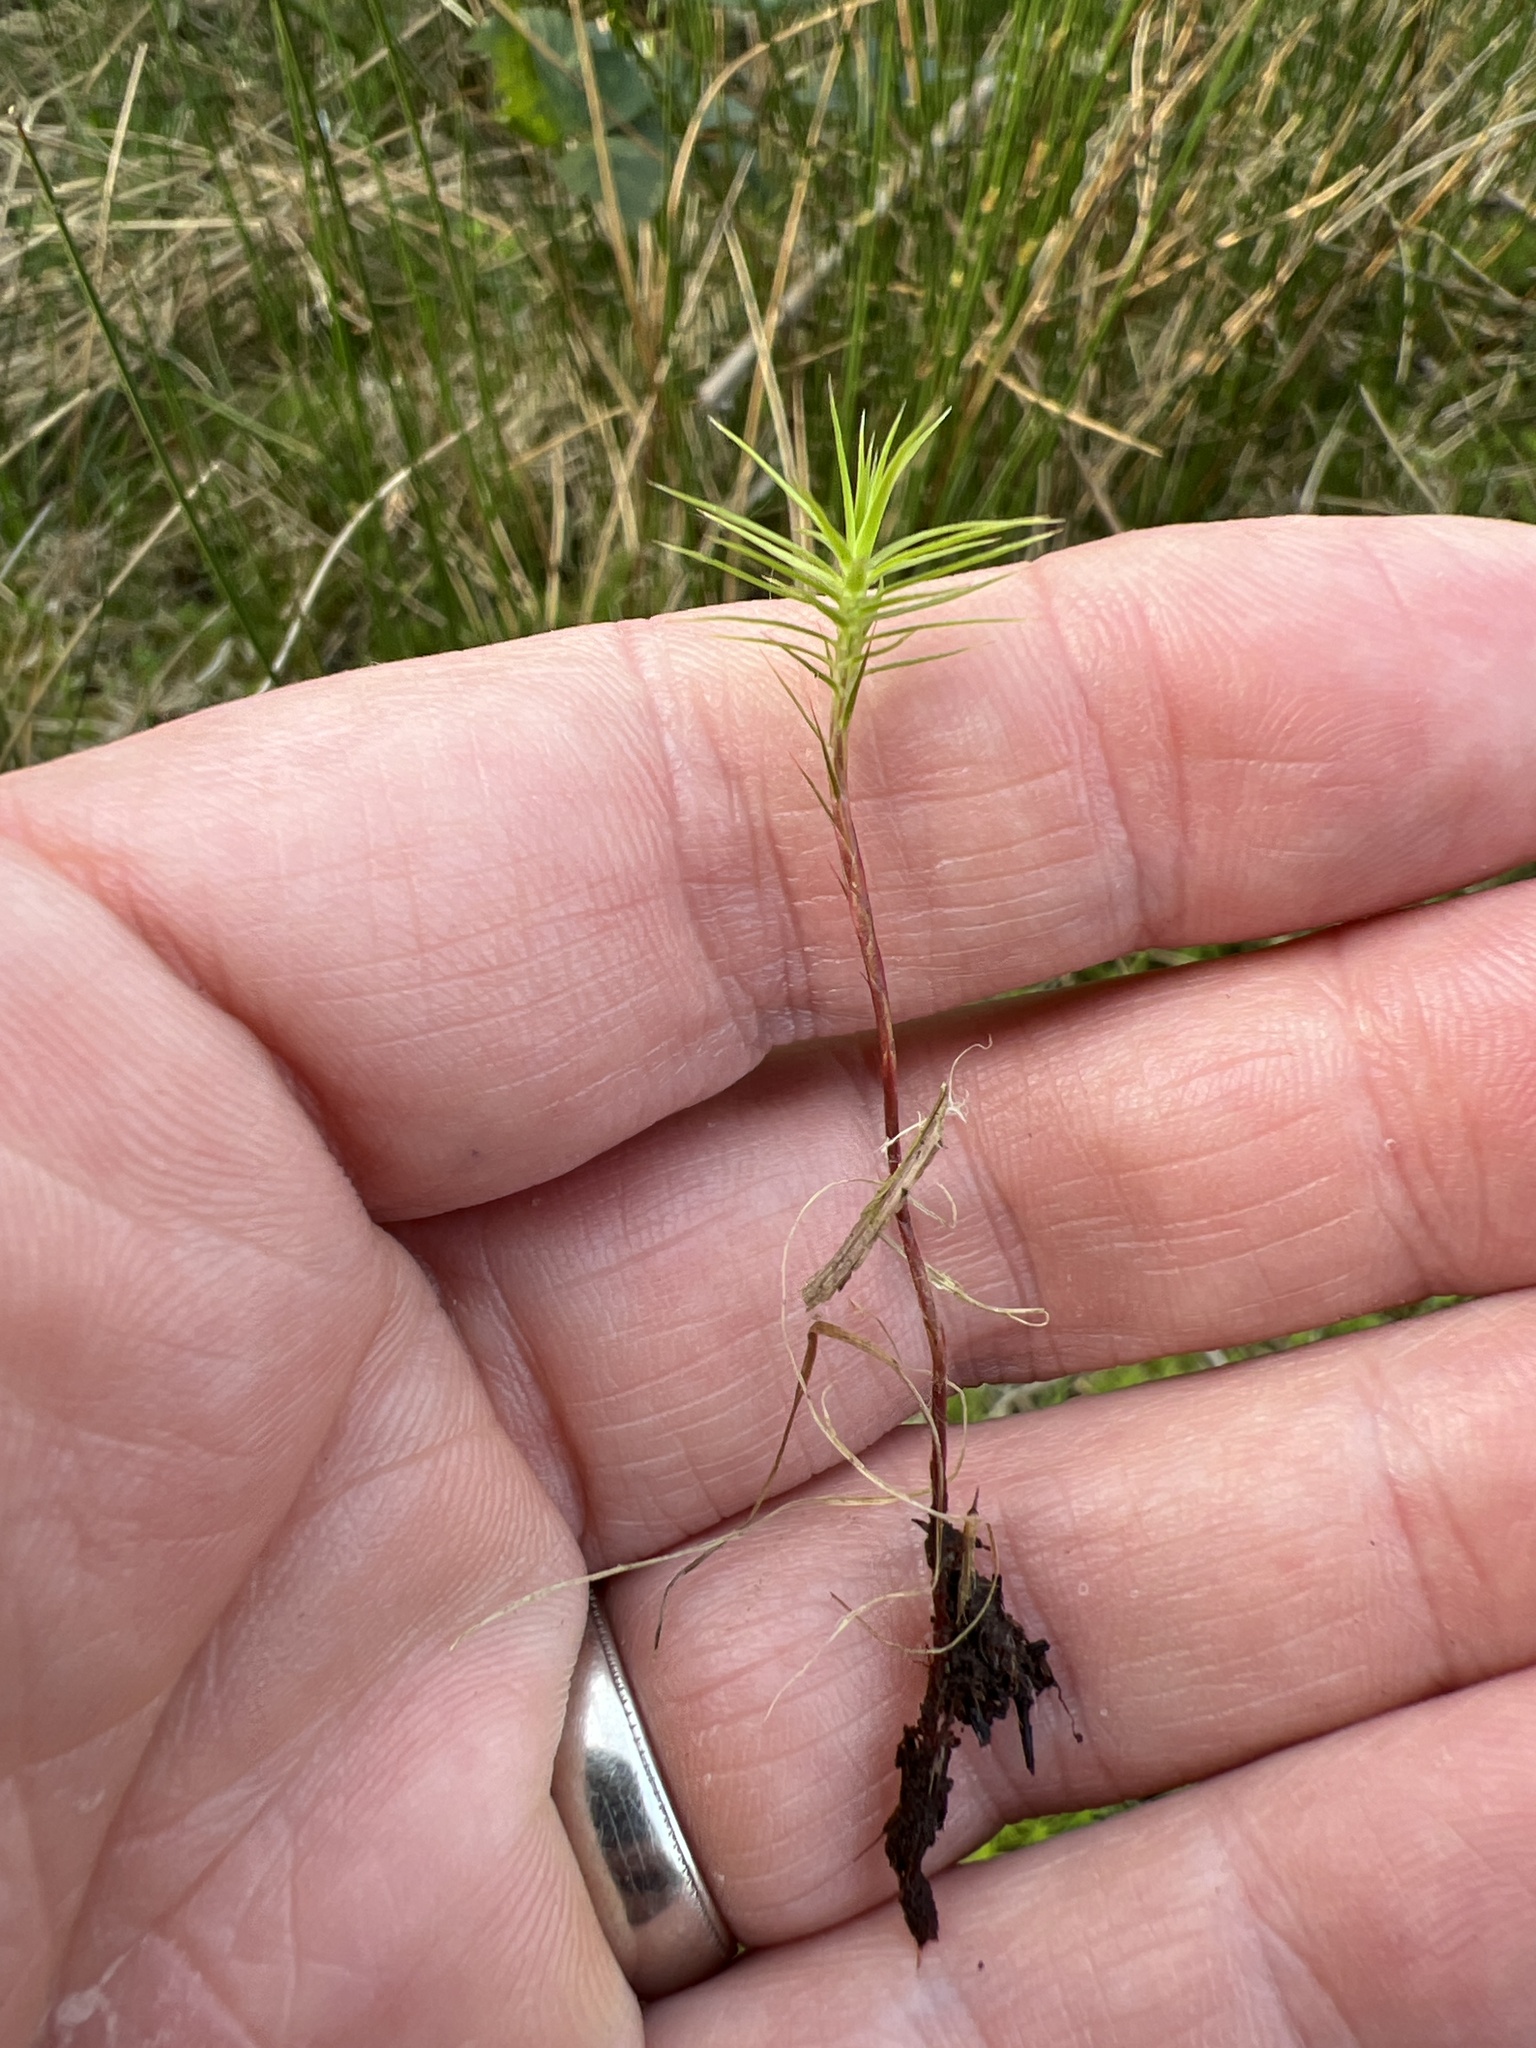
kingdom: Plantae
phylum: Bryophyta
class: Polytrichopsida
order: Polytrichales
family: Polytrichaceae
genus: Polytrichum
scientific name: Polytrichum commune
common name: Common haircap
